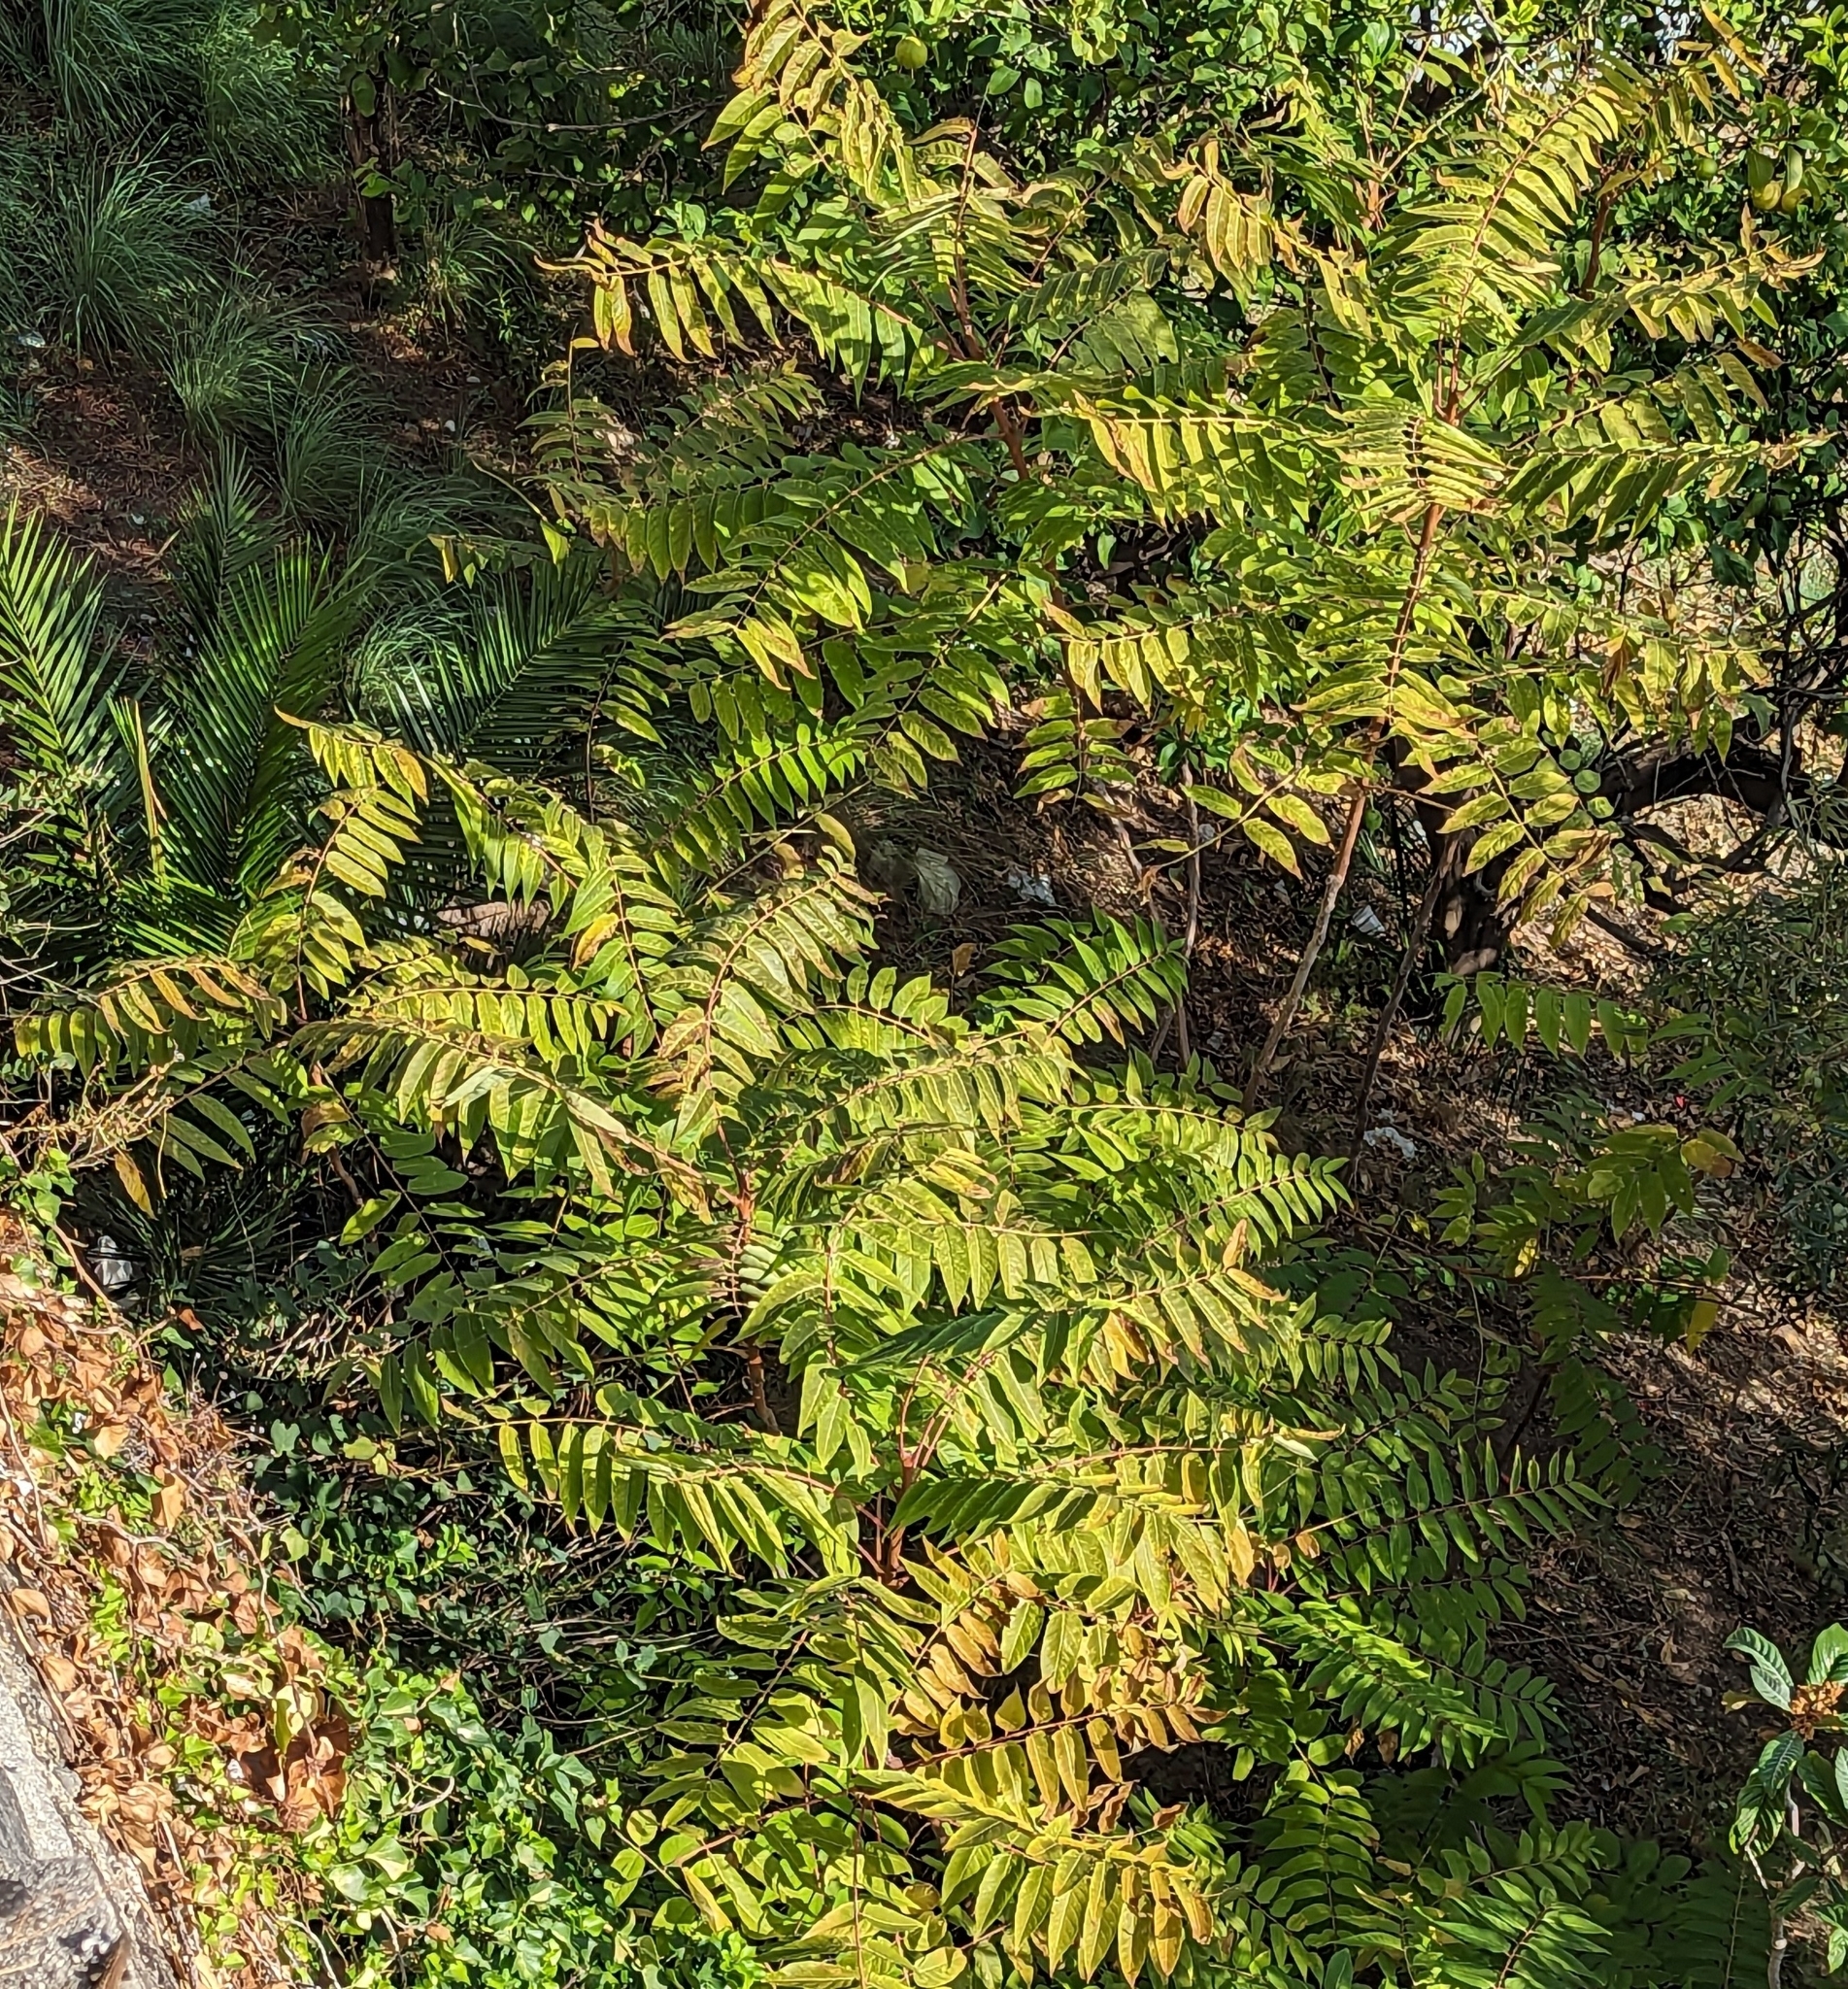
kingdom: Plantae
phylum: Tracheophyta
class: Magnoliopsida
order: Sapindales
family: Simaroubaceae
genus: Ailanthus
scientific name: Ailanthus altissima
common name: Tree-of-heaven
